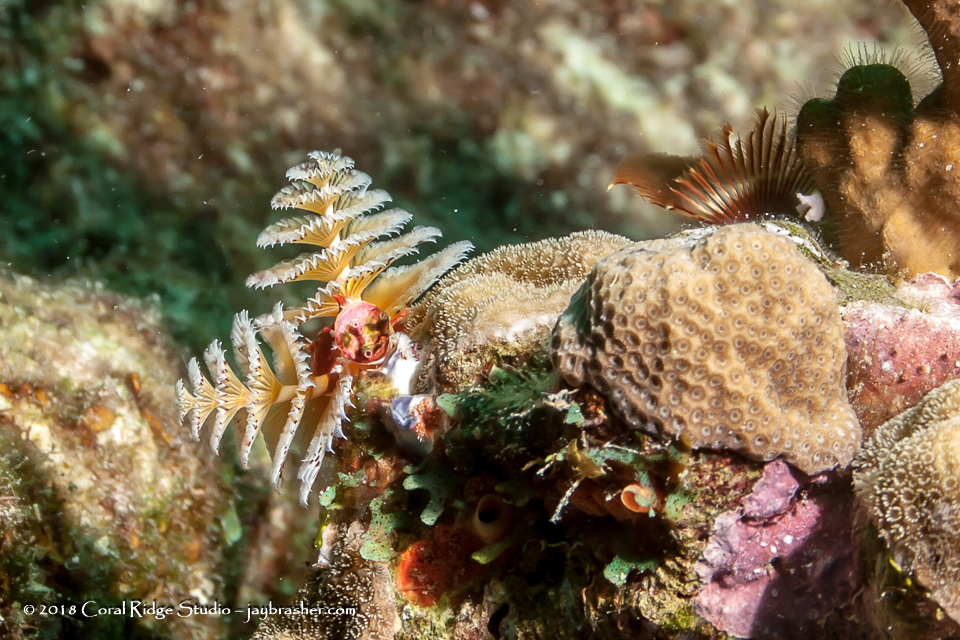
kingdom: Animalia
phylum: Annelida
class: Polychaeta
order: Sabellida
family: Serpulidae
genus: Spirobranchus
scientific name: Spirobranchus giganteus
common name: Christmas tree worm
